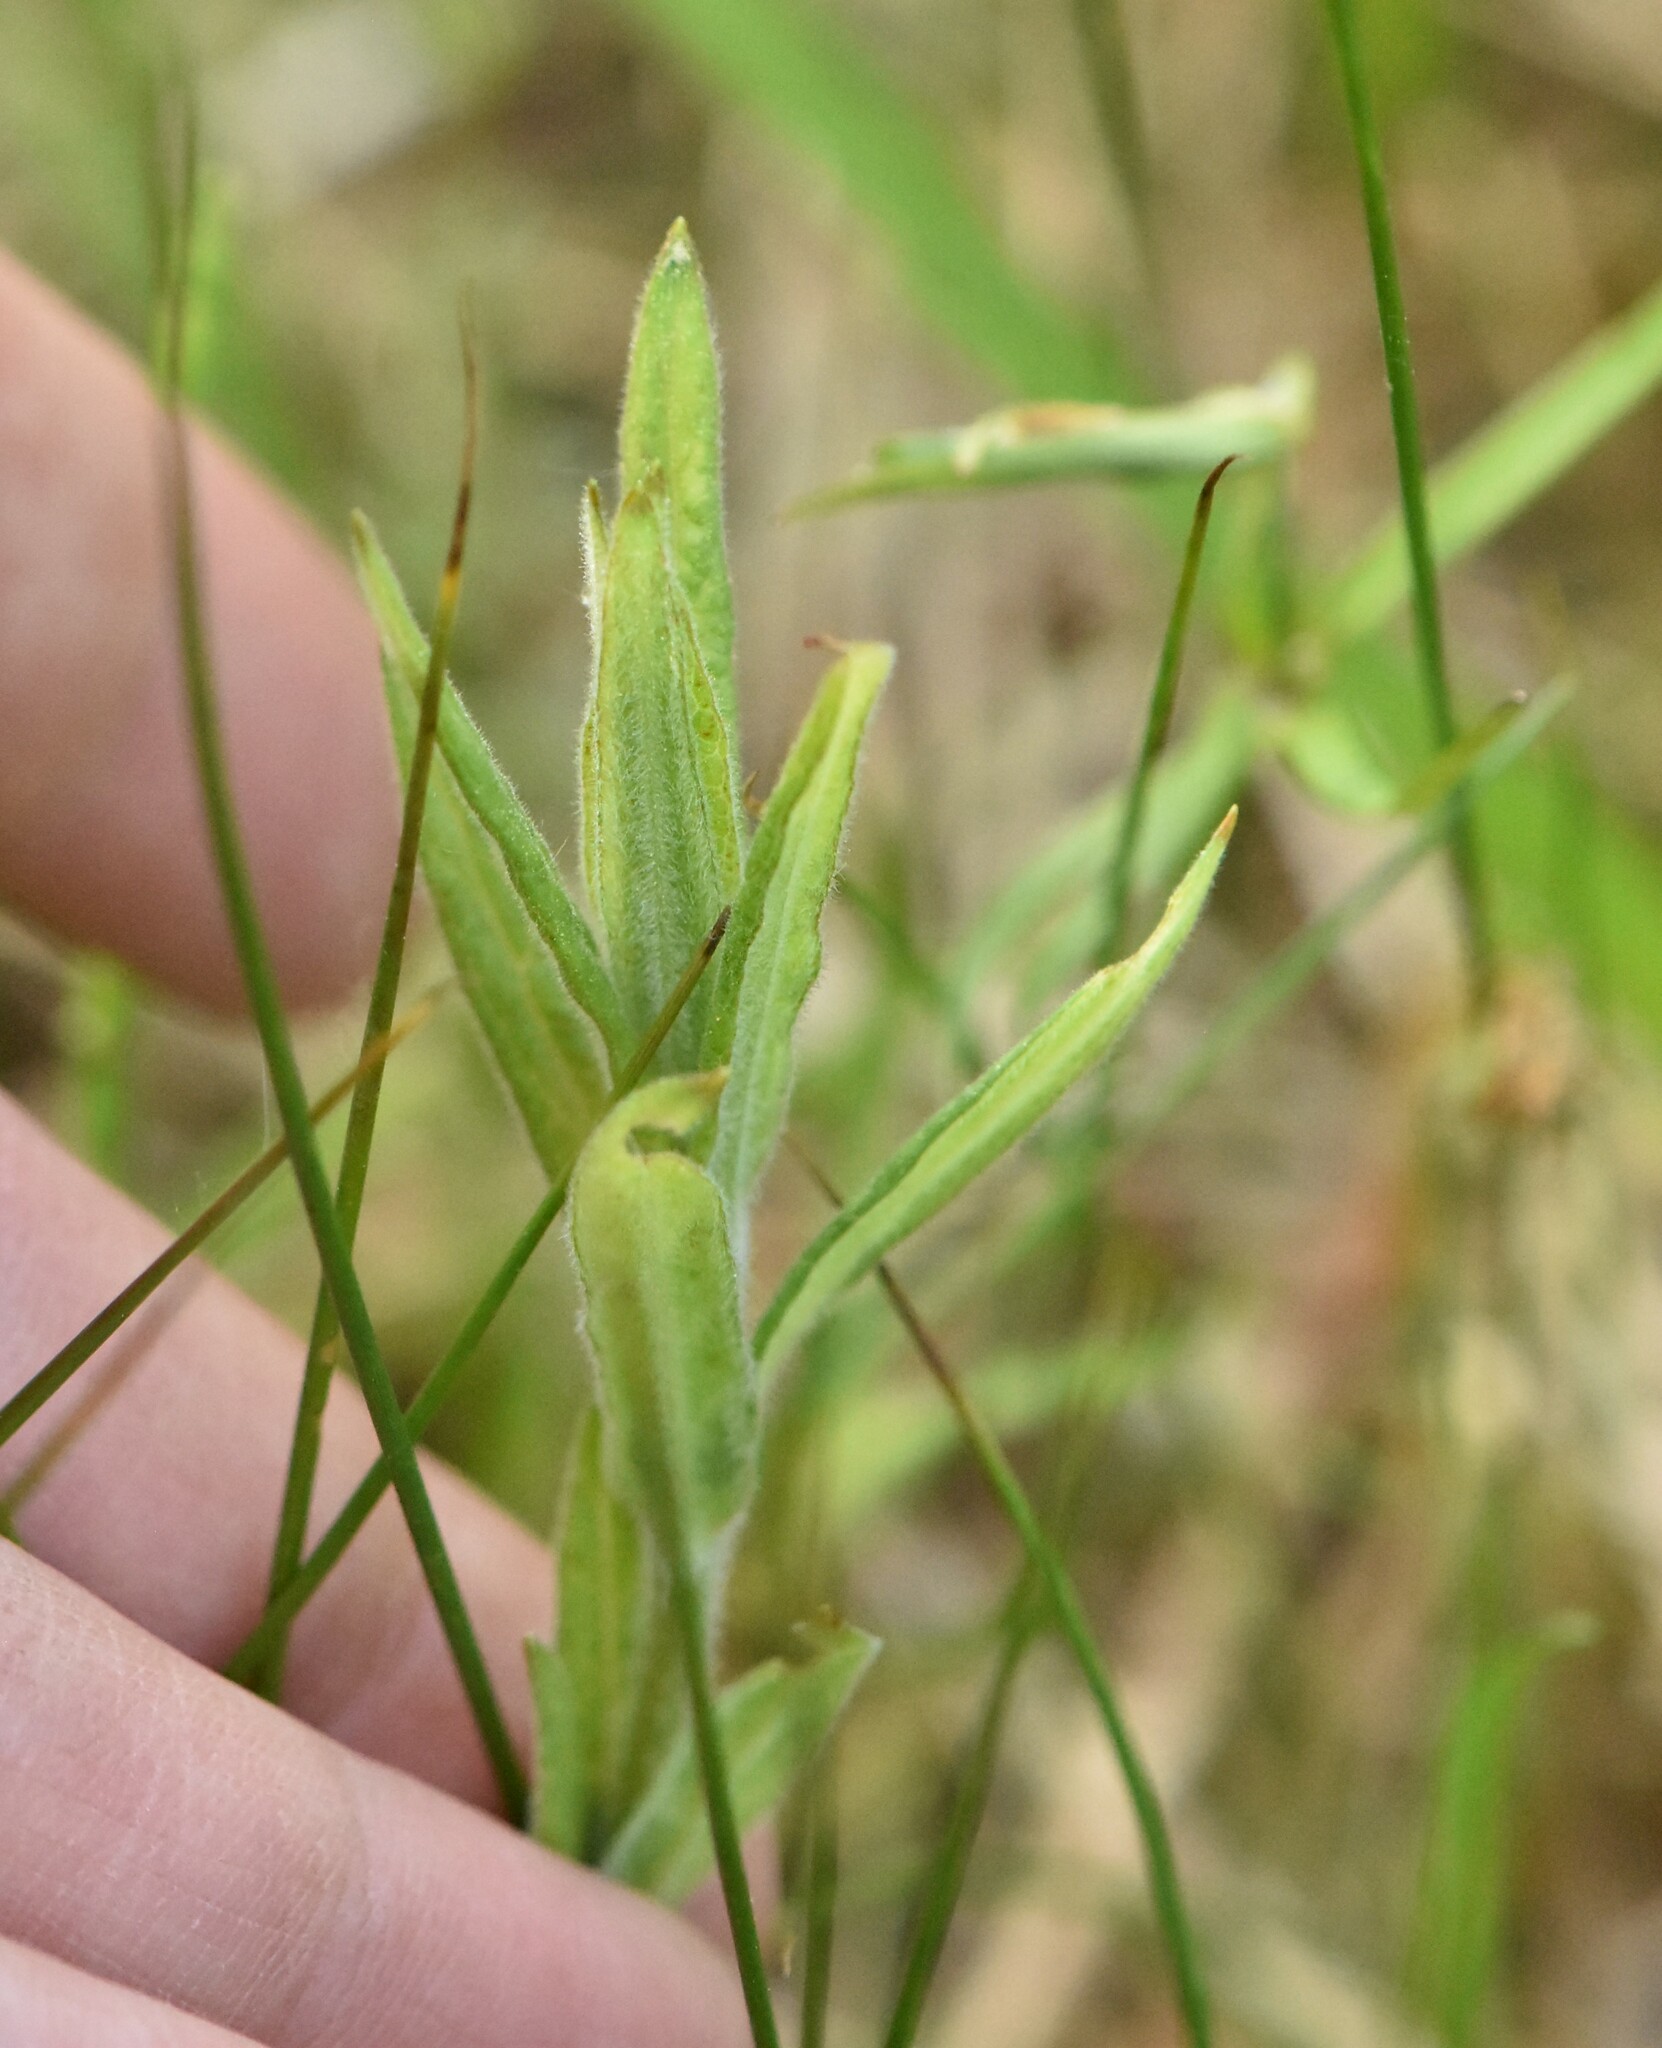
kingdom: Plantae
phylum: Tracheophyta
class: Magnoliopsida
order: Myrtales
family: Onagraceae
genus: Epilobium
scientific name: Epilobium parviflorum
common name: Hoary willowherb
